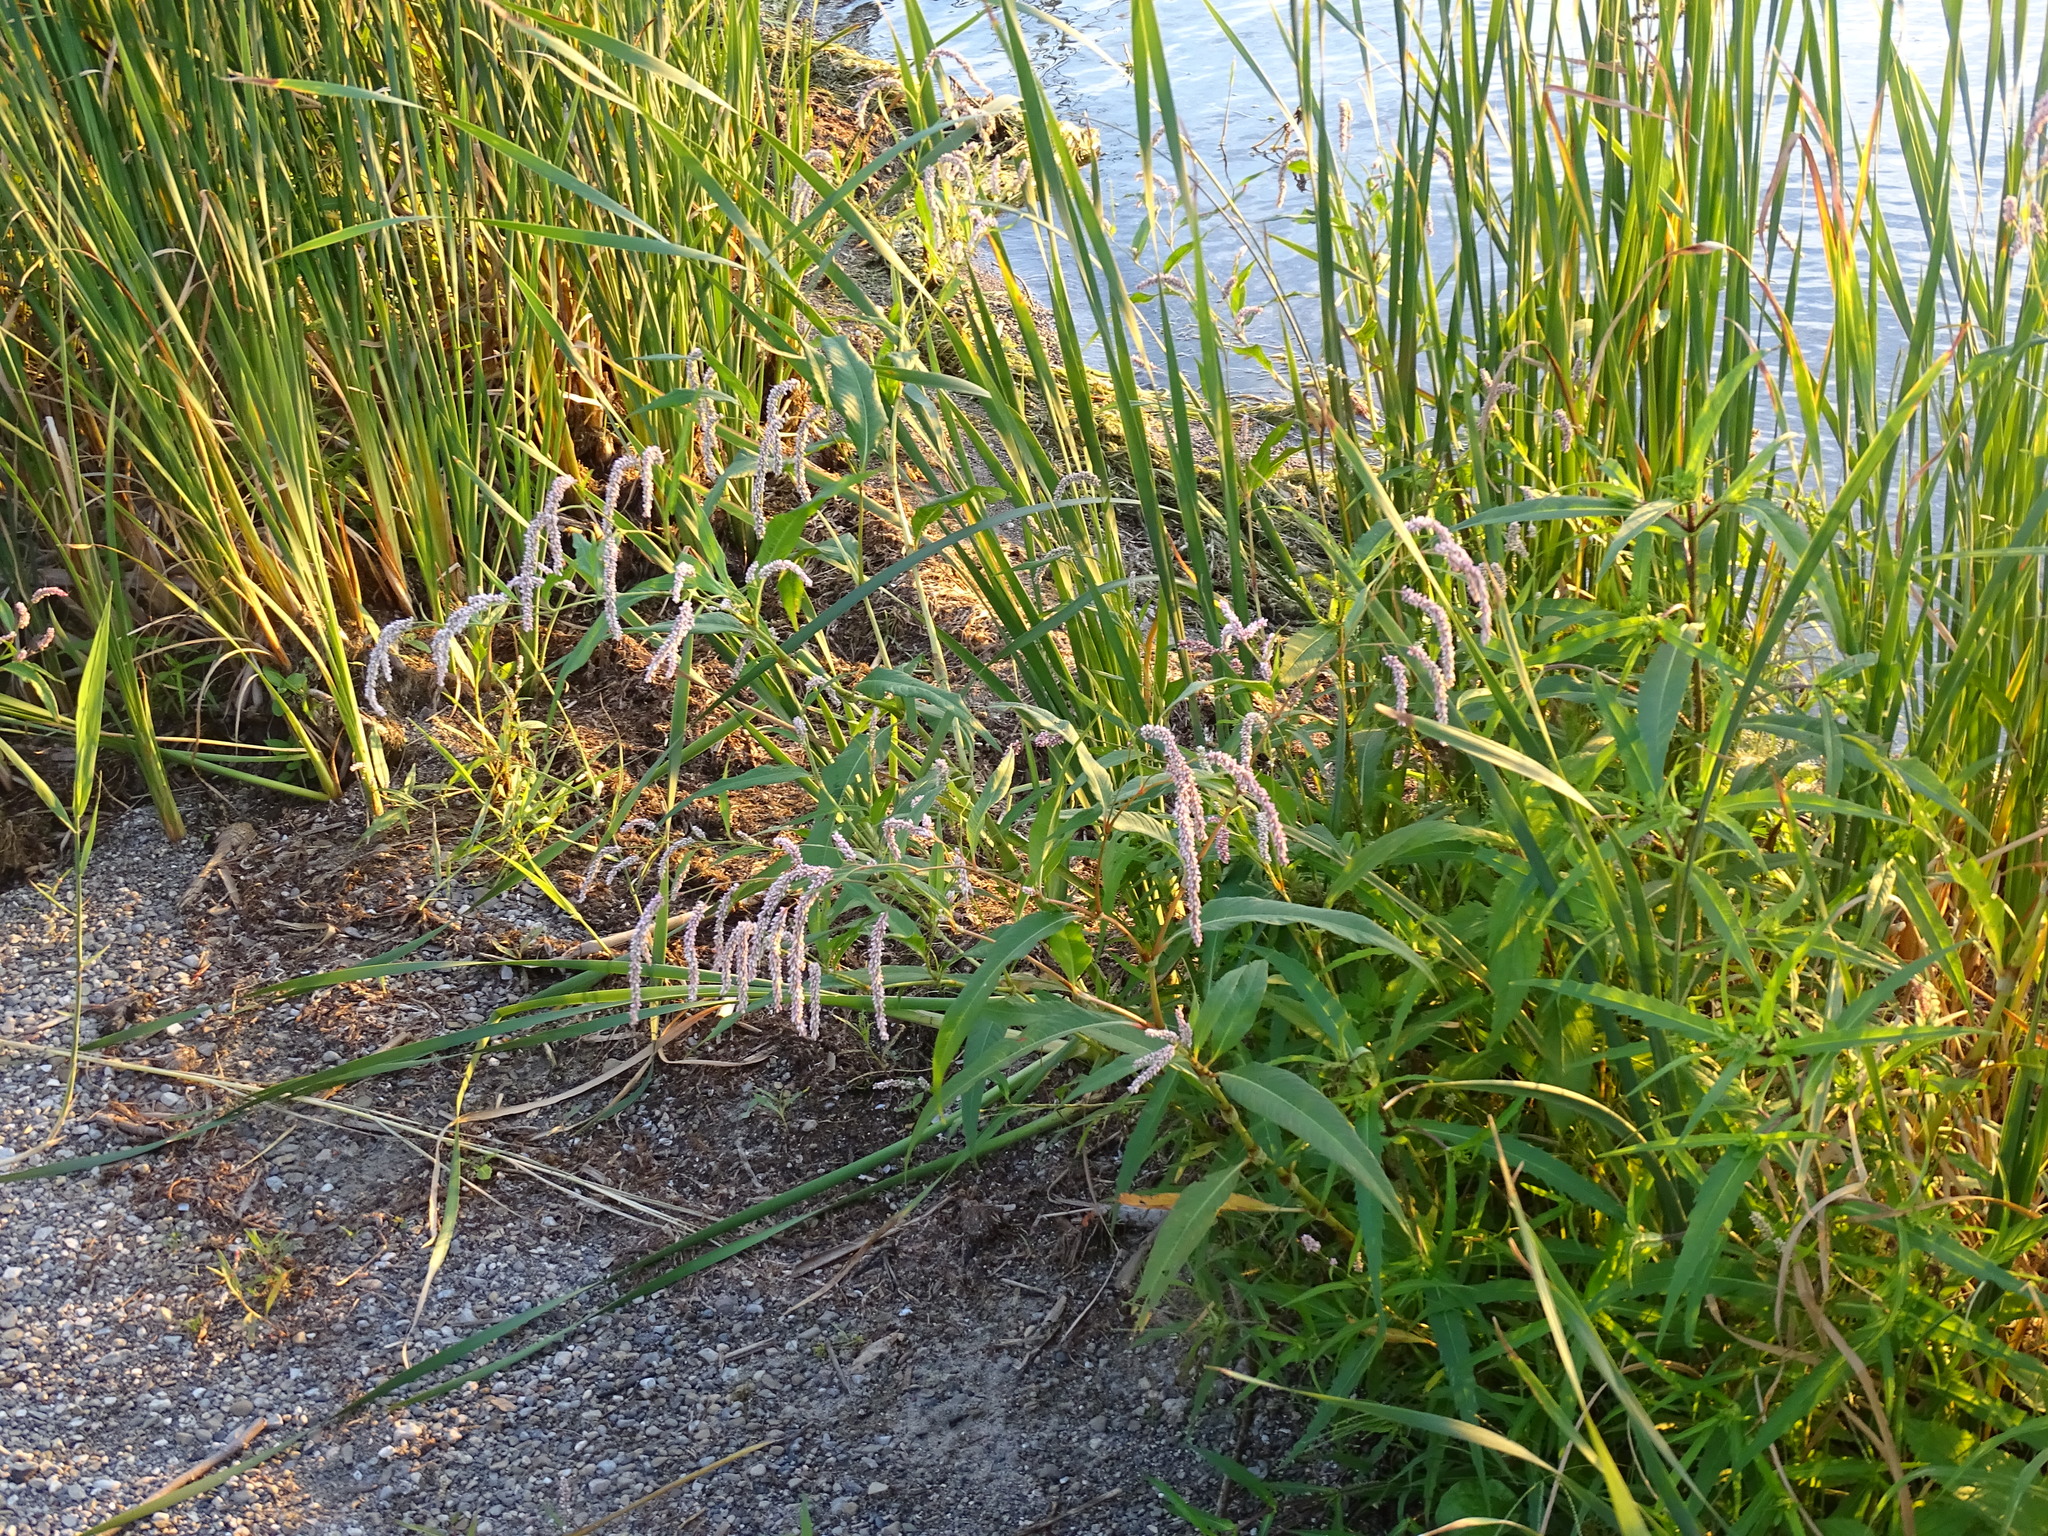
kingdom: Plantae
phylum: Tracheophyta
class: Magnoliopsida
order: Caryophyllales
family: Polygonaceae
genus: Persicaria
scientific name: Persicaria lapathifolia
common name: Curlytop knotweed
